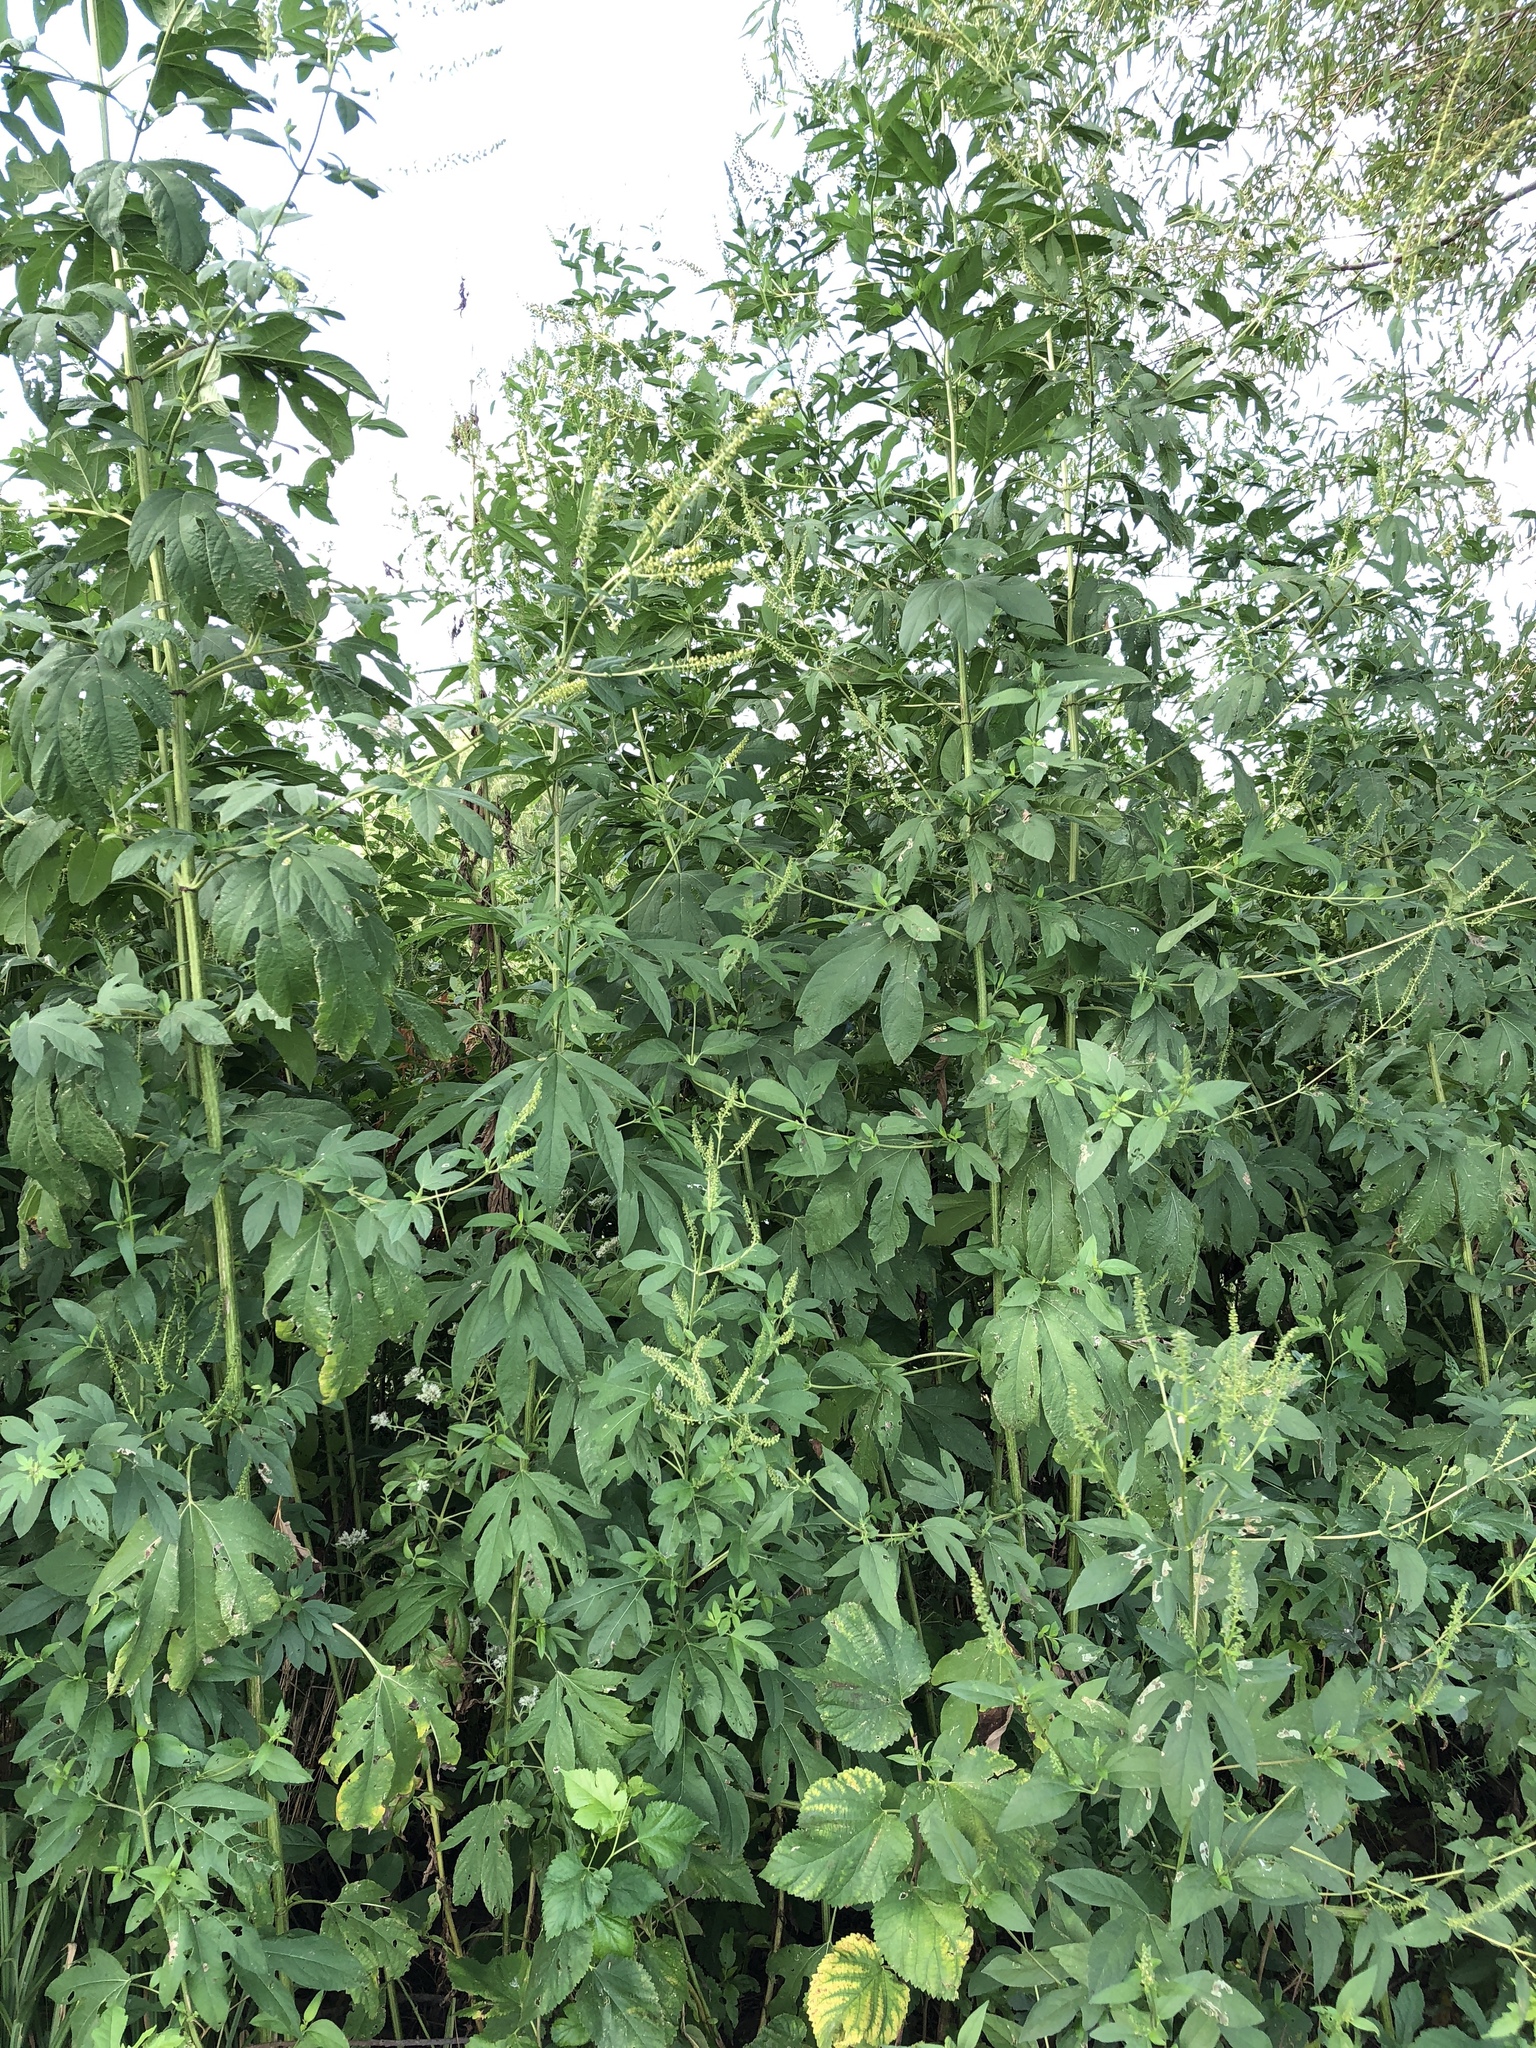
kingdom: Plantae
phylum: Tracheophyta
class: Magnoliopsida
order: Asterales
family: Asteraceae
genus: Ambrosia
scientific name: Ambrosia trifida
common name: Giant ragweed
